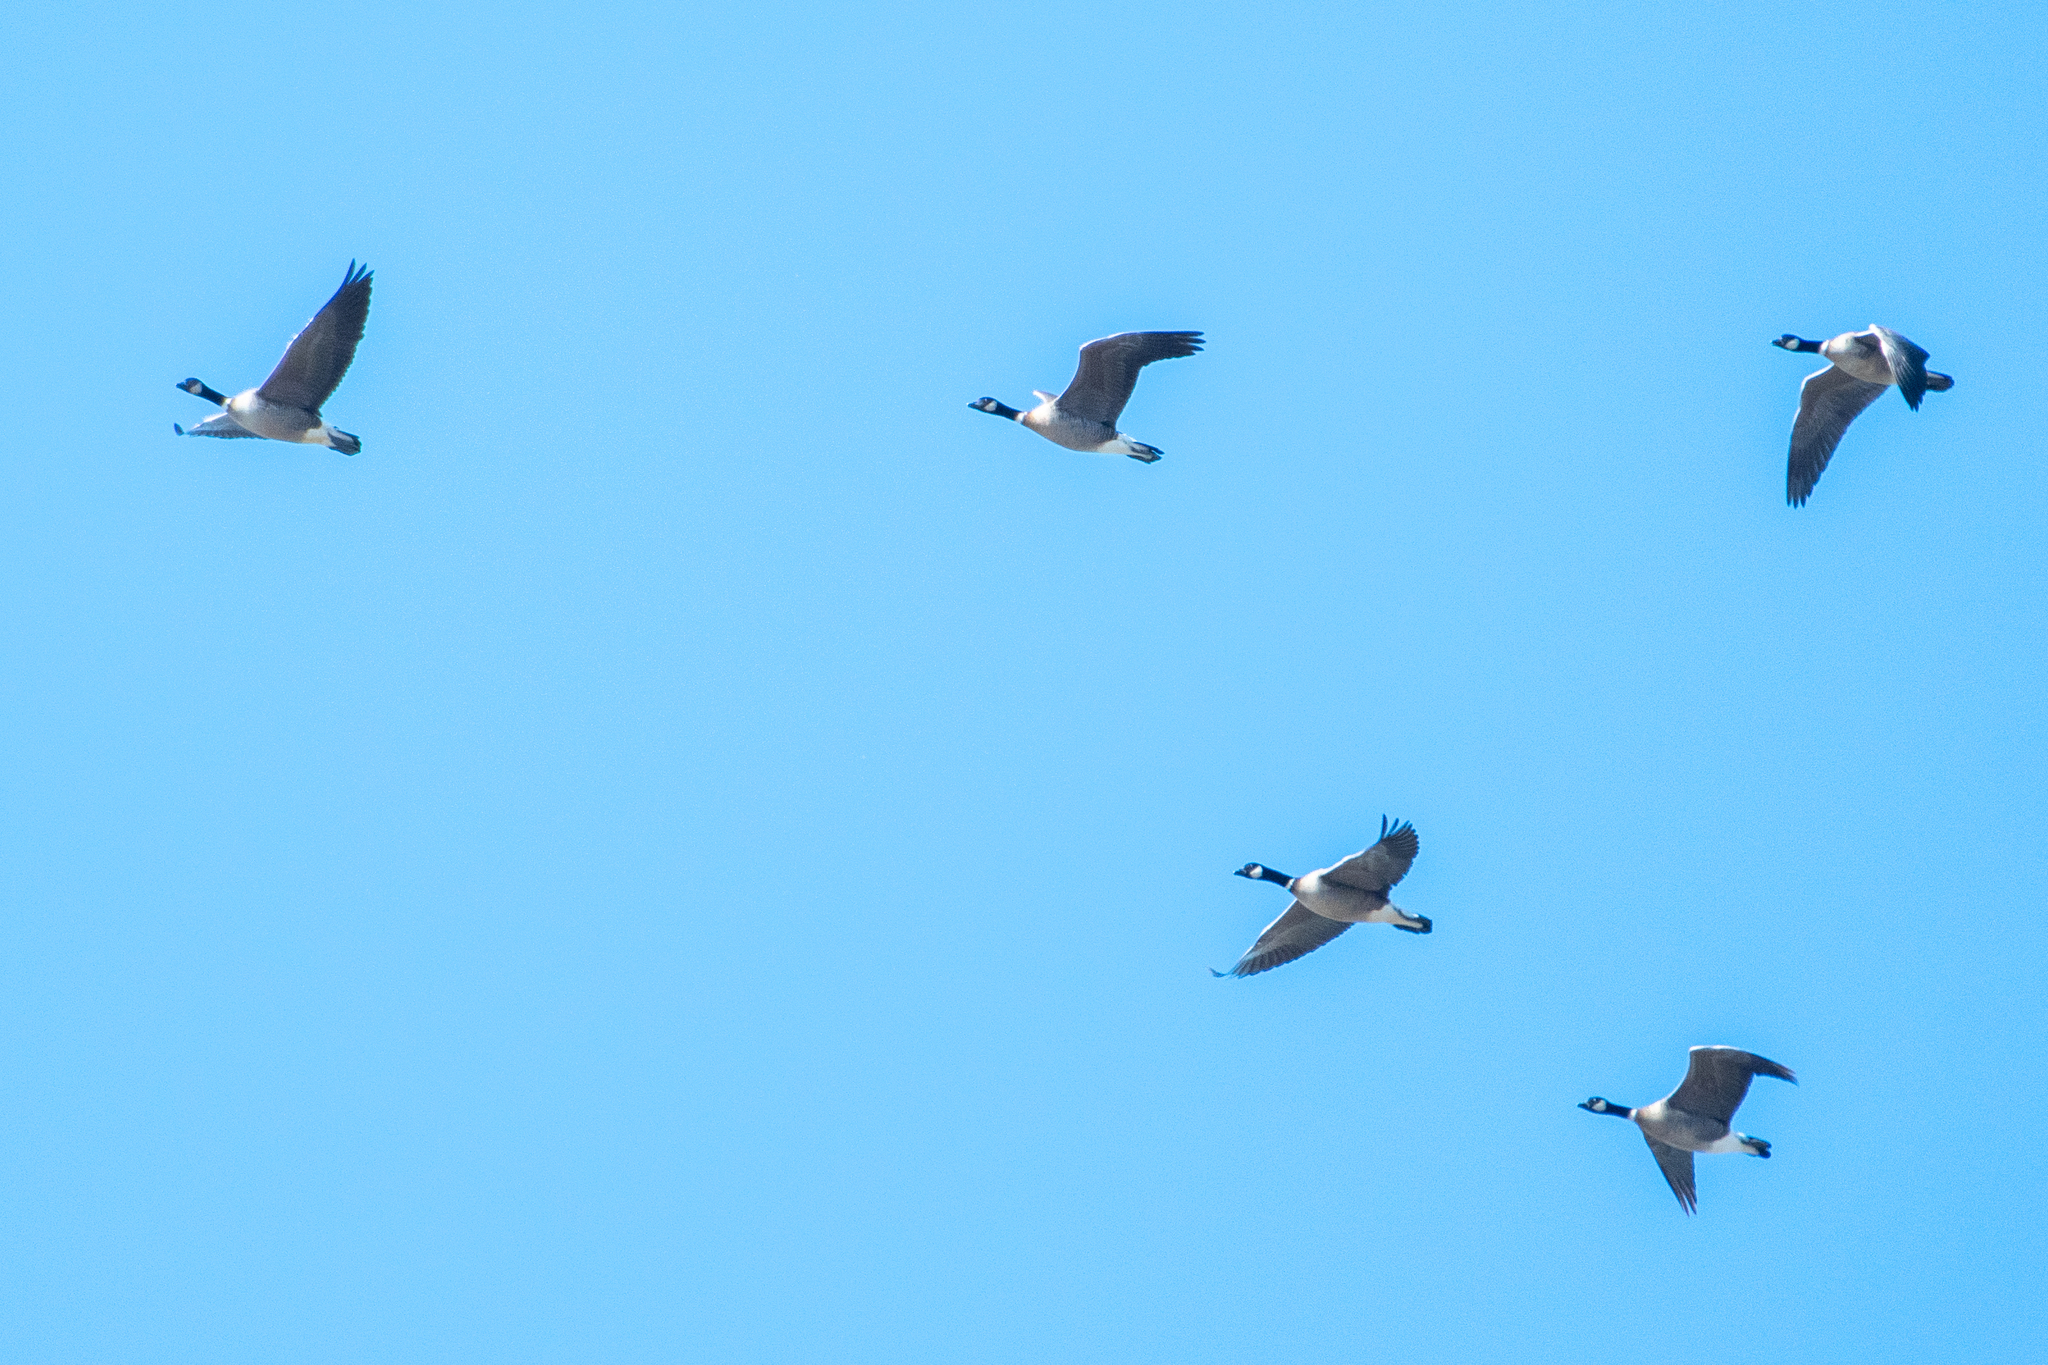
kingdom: Animalia
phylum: Chordata
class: Aves
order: Anseriformes
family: Anatidae
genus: Branta
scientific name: Branta hutchinsii
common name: Cackling goose
